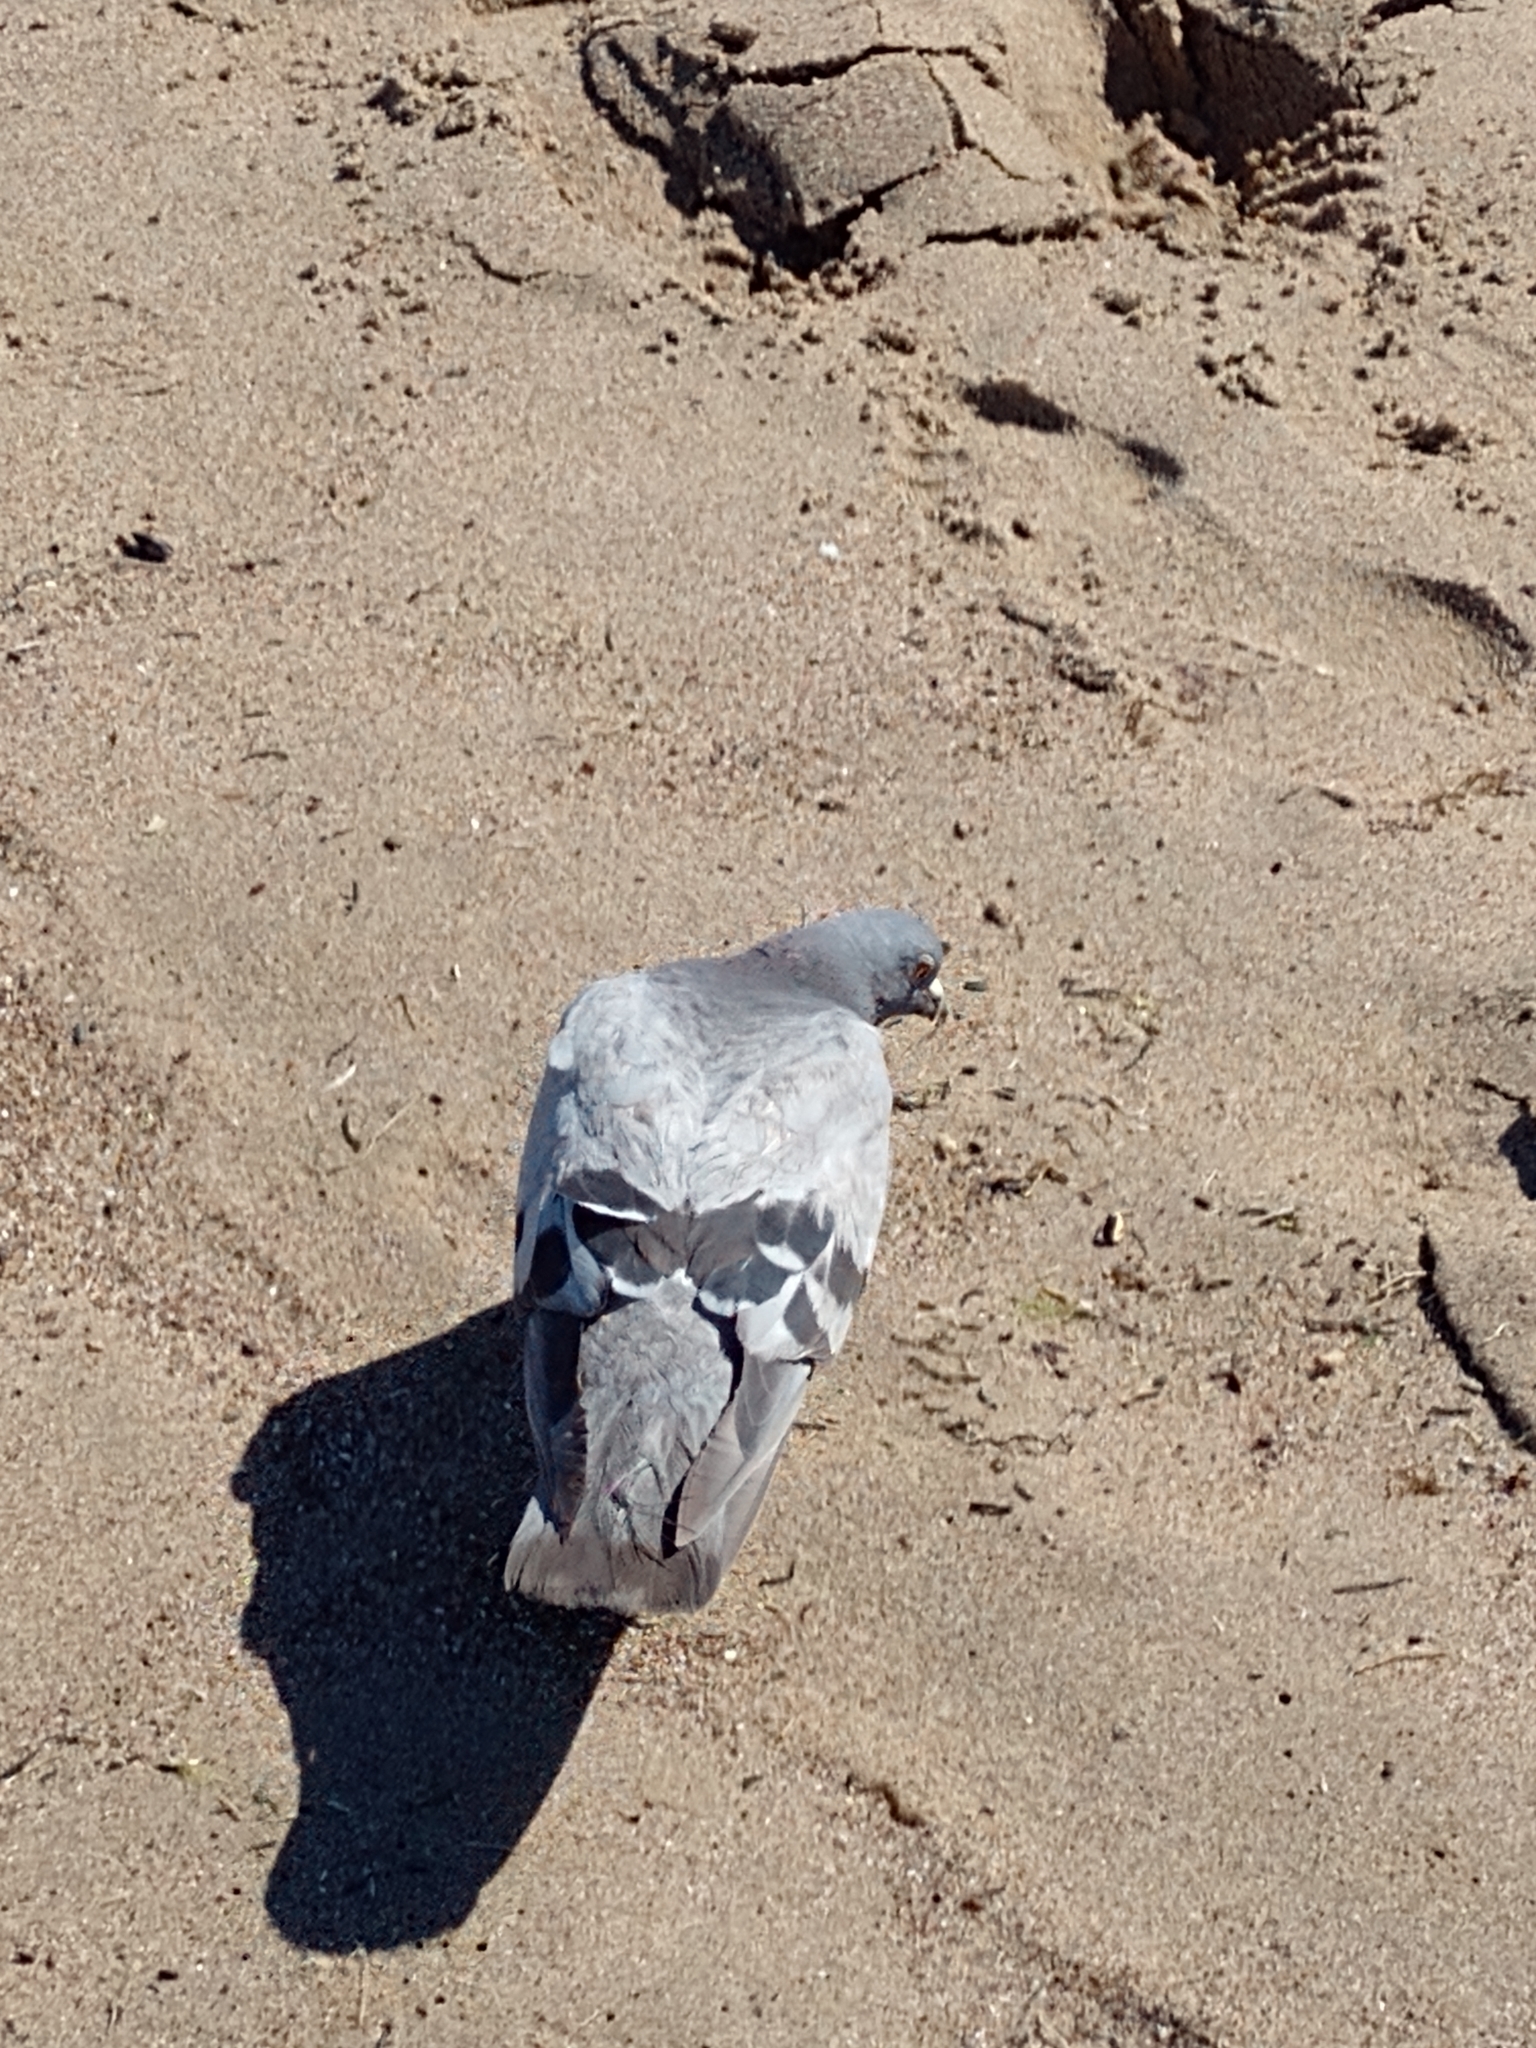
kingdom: Animalia
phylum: Chordata
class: Aves
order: Columbiformes
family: Columbidae
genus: Columba
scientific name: Columba livia
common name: Rock pigeon
